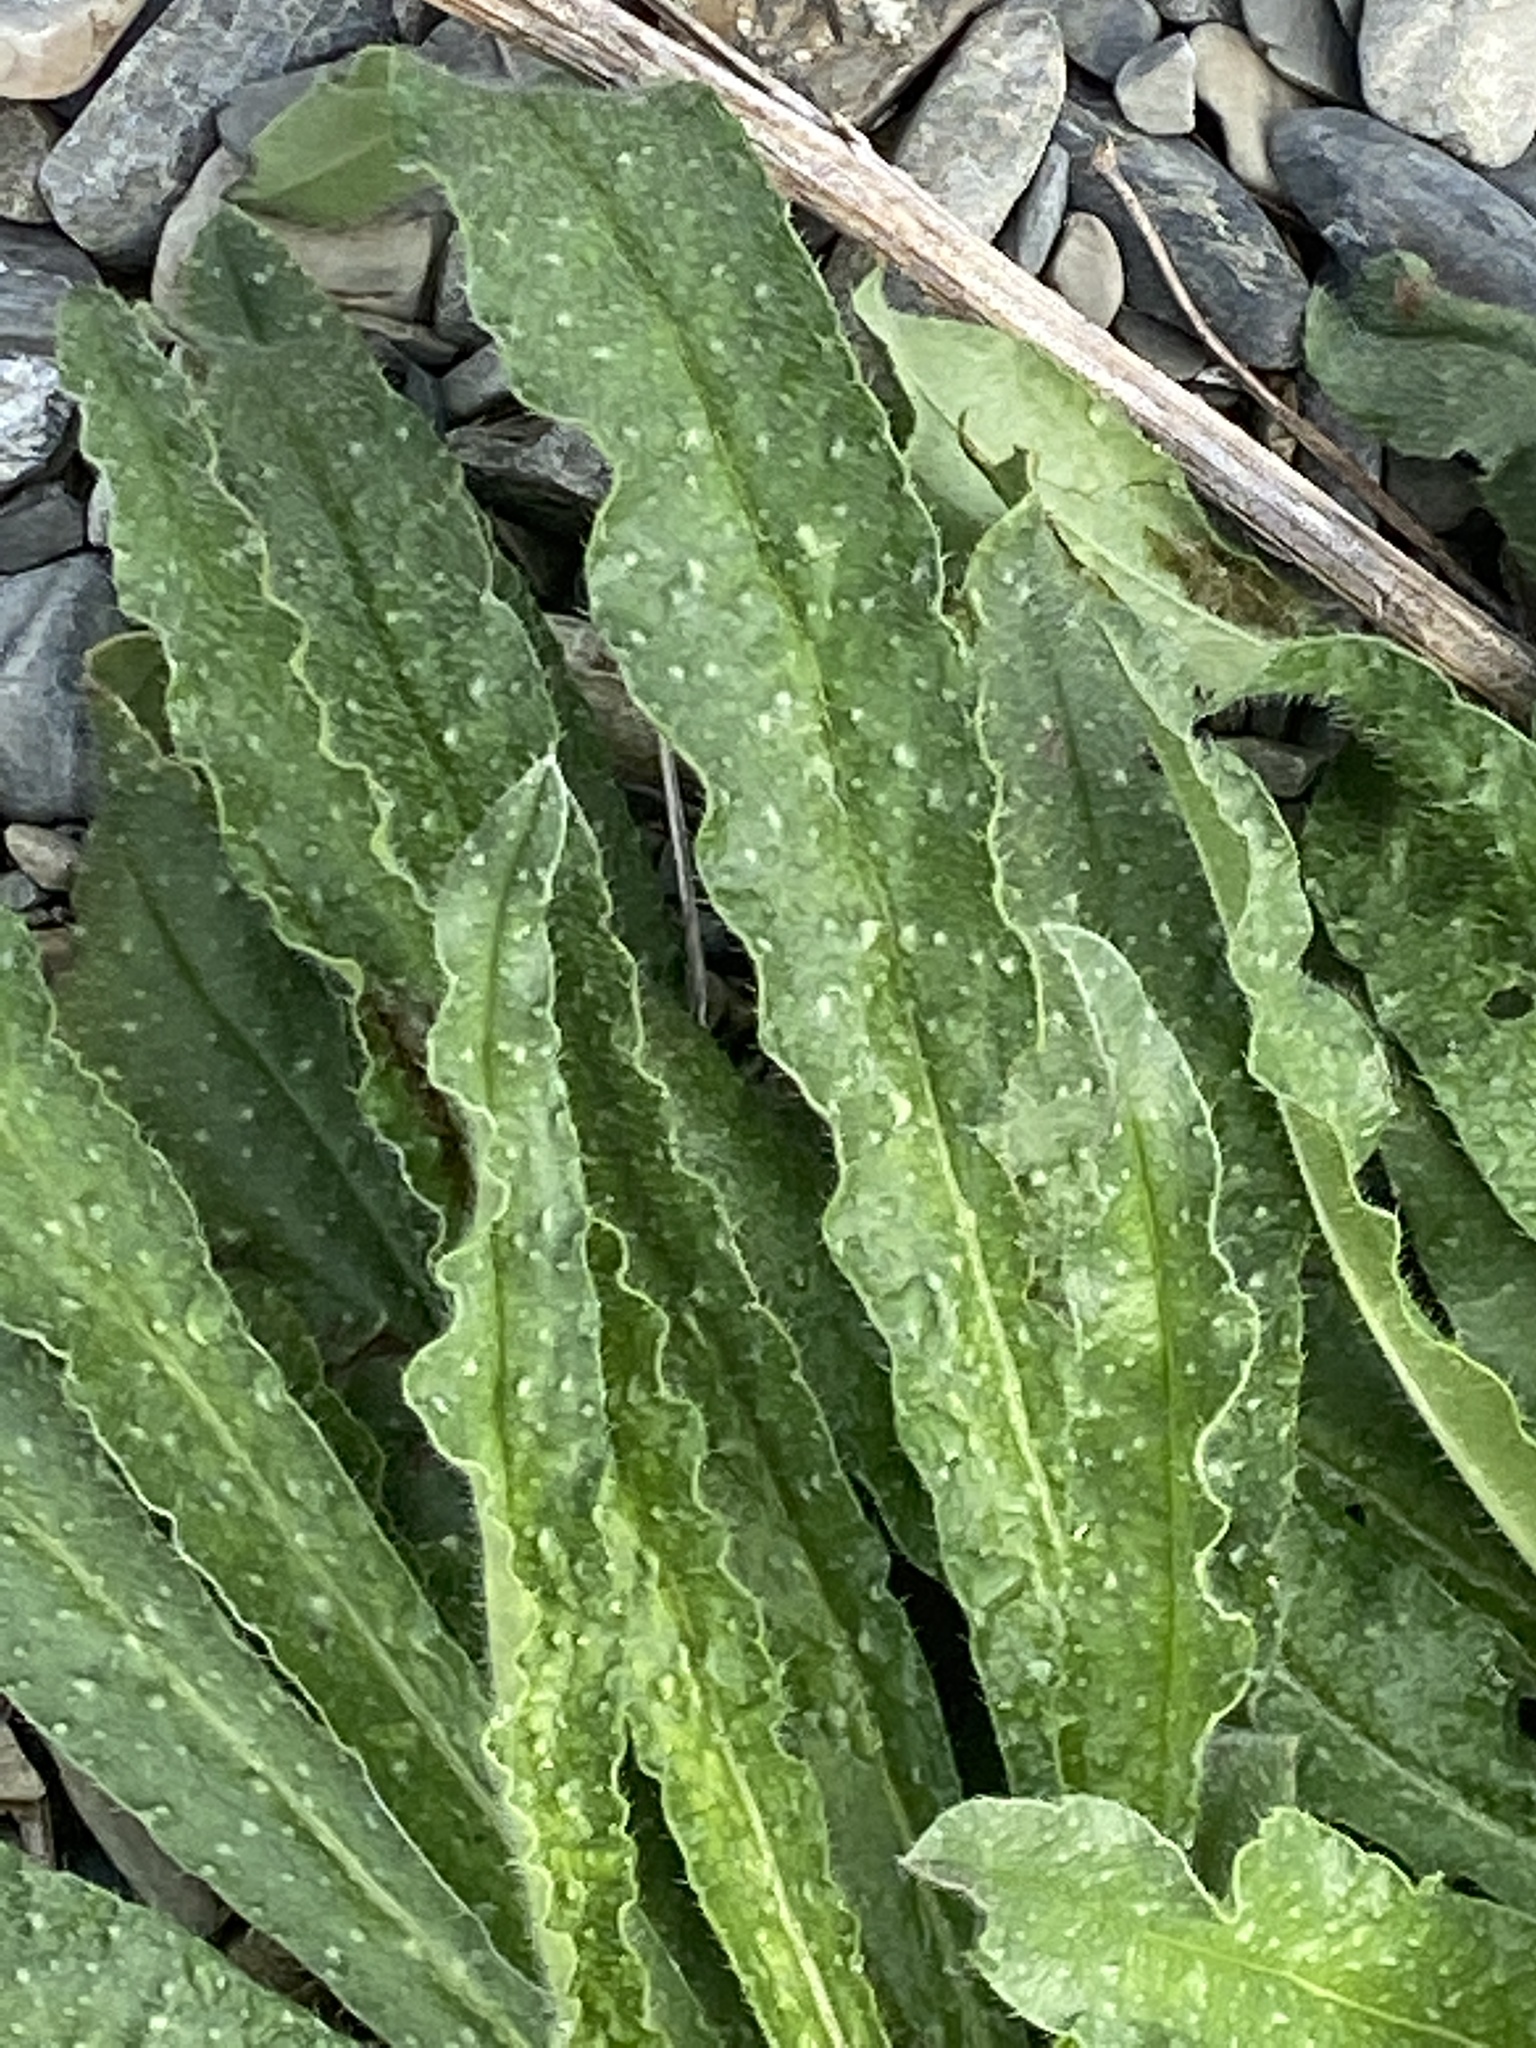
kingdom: Plantae
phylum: Tracheophyta
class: Magnoliopsida
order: Boraginales
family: Boraginaceae
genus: Echium
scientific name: Echium vulgare
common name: Common viper's bugloss
